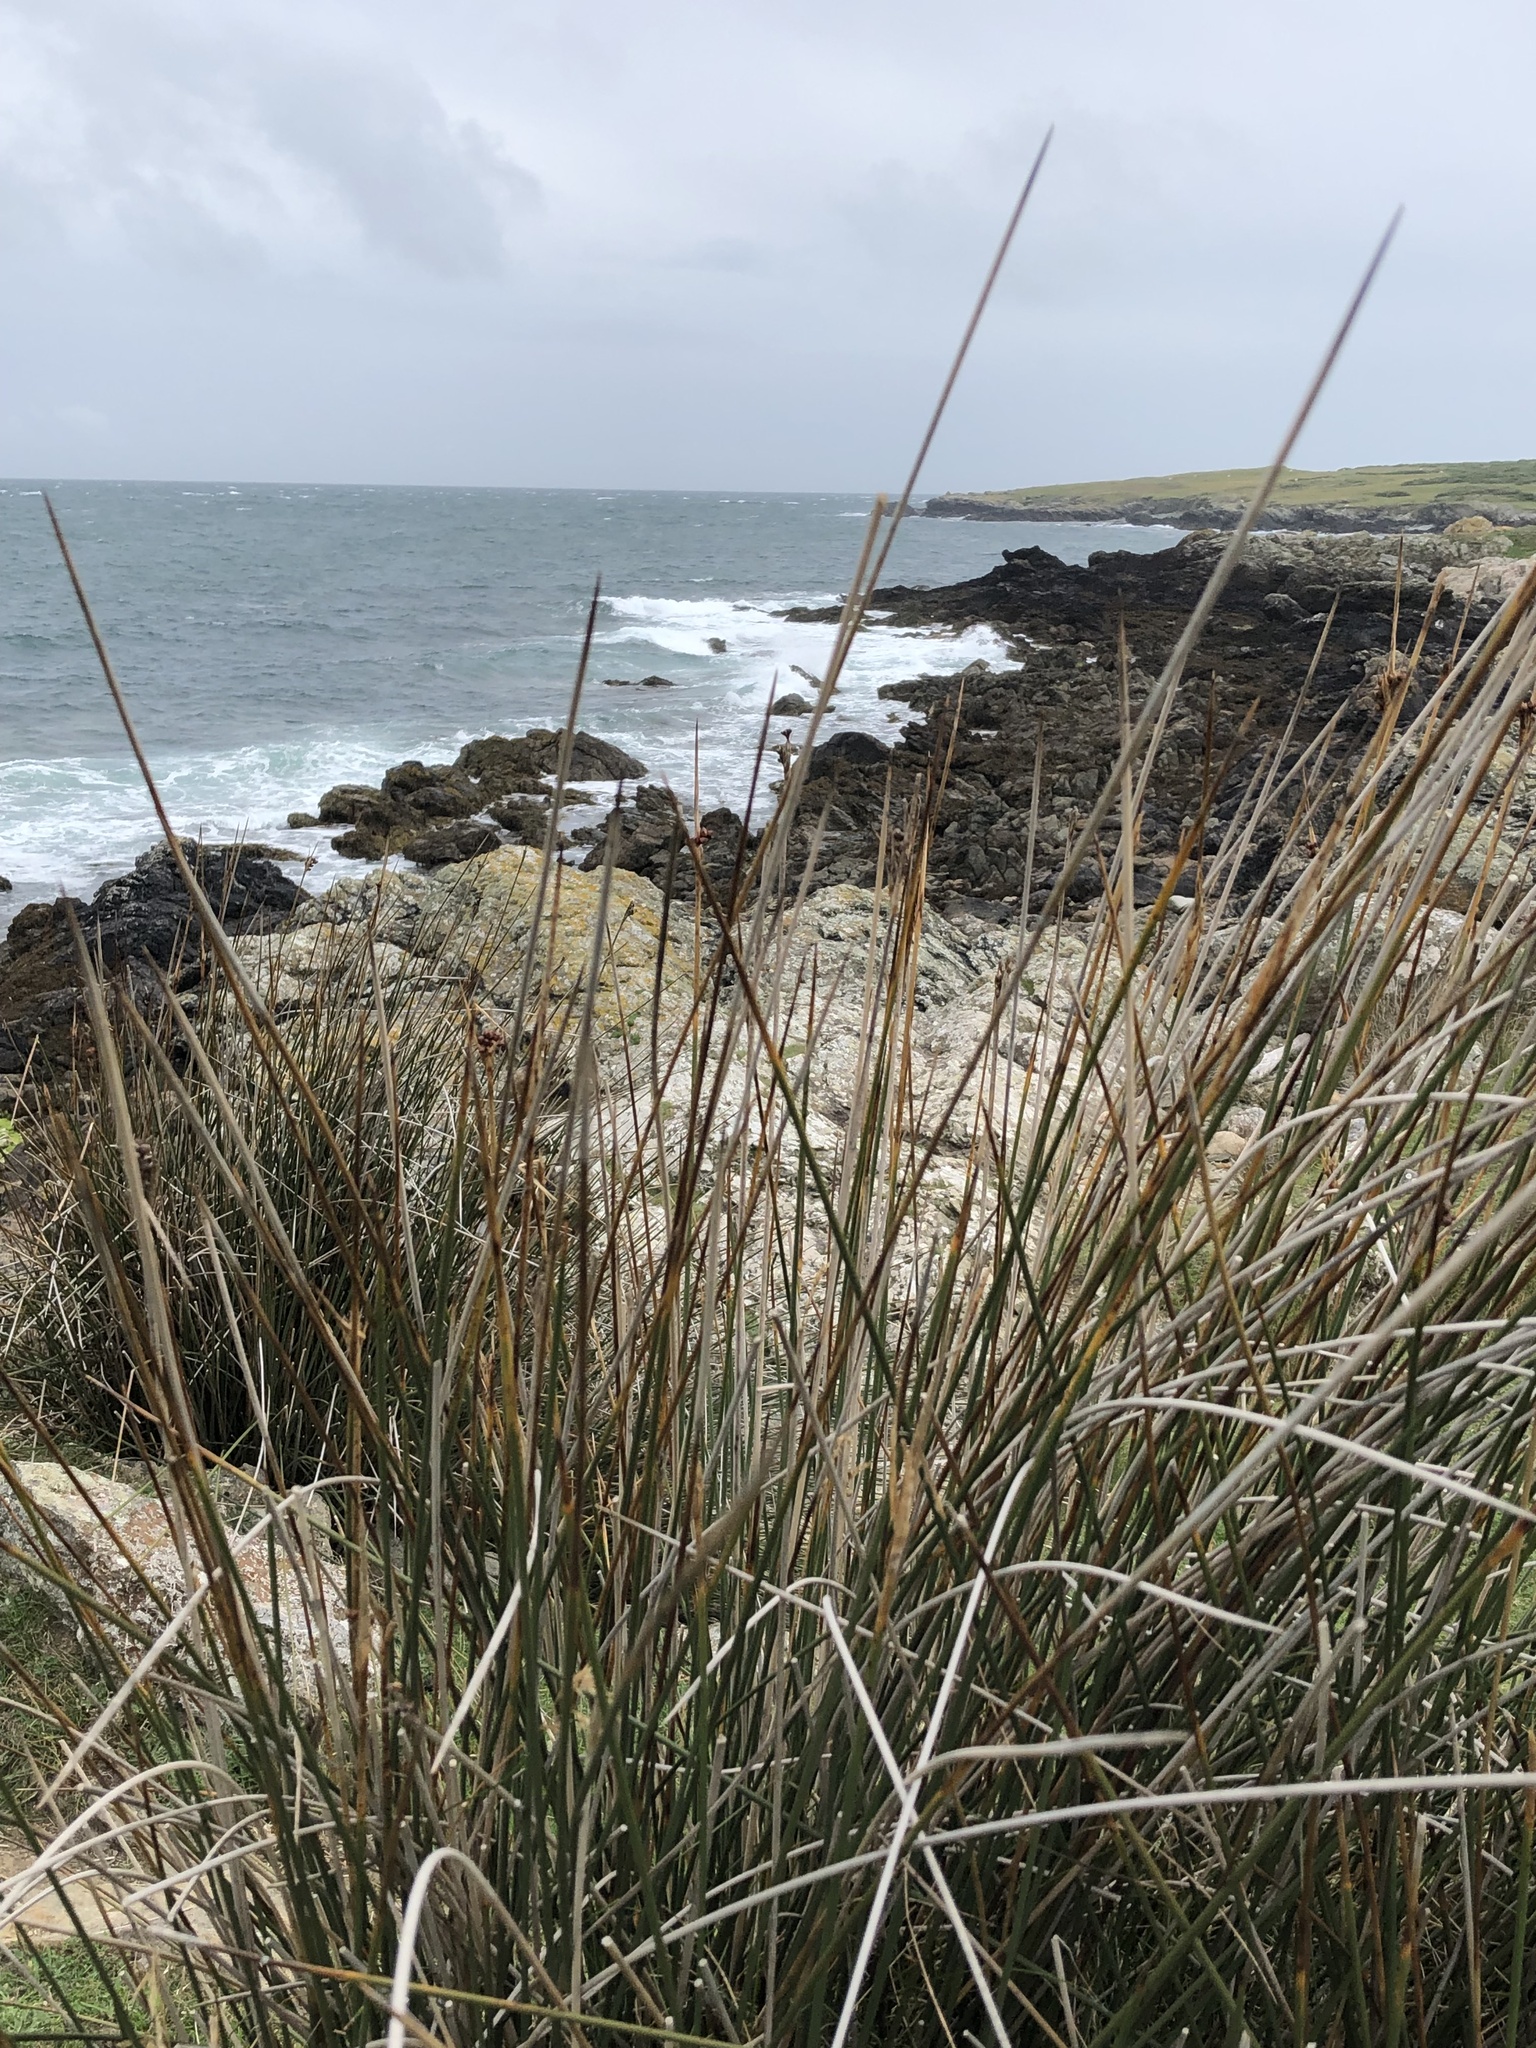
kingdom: Plantae
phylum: Tracheophyta
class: Liliopsida
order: Poales
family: Juncaceae
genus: Juncus
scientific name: Juncus acutus
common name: Sharp rush
